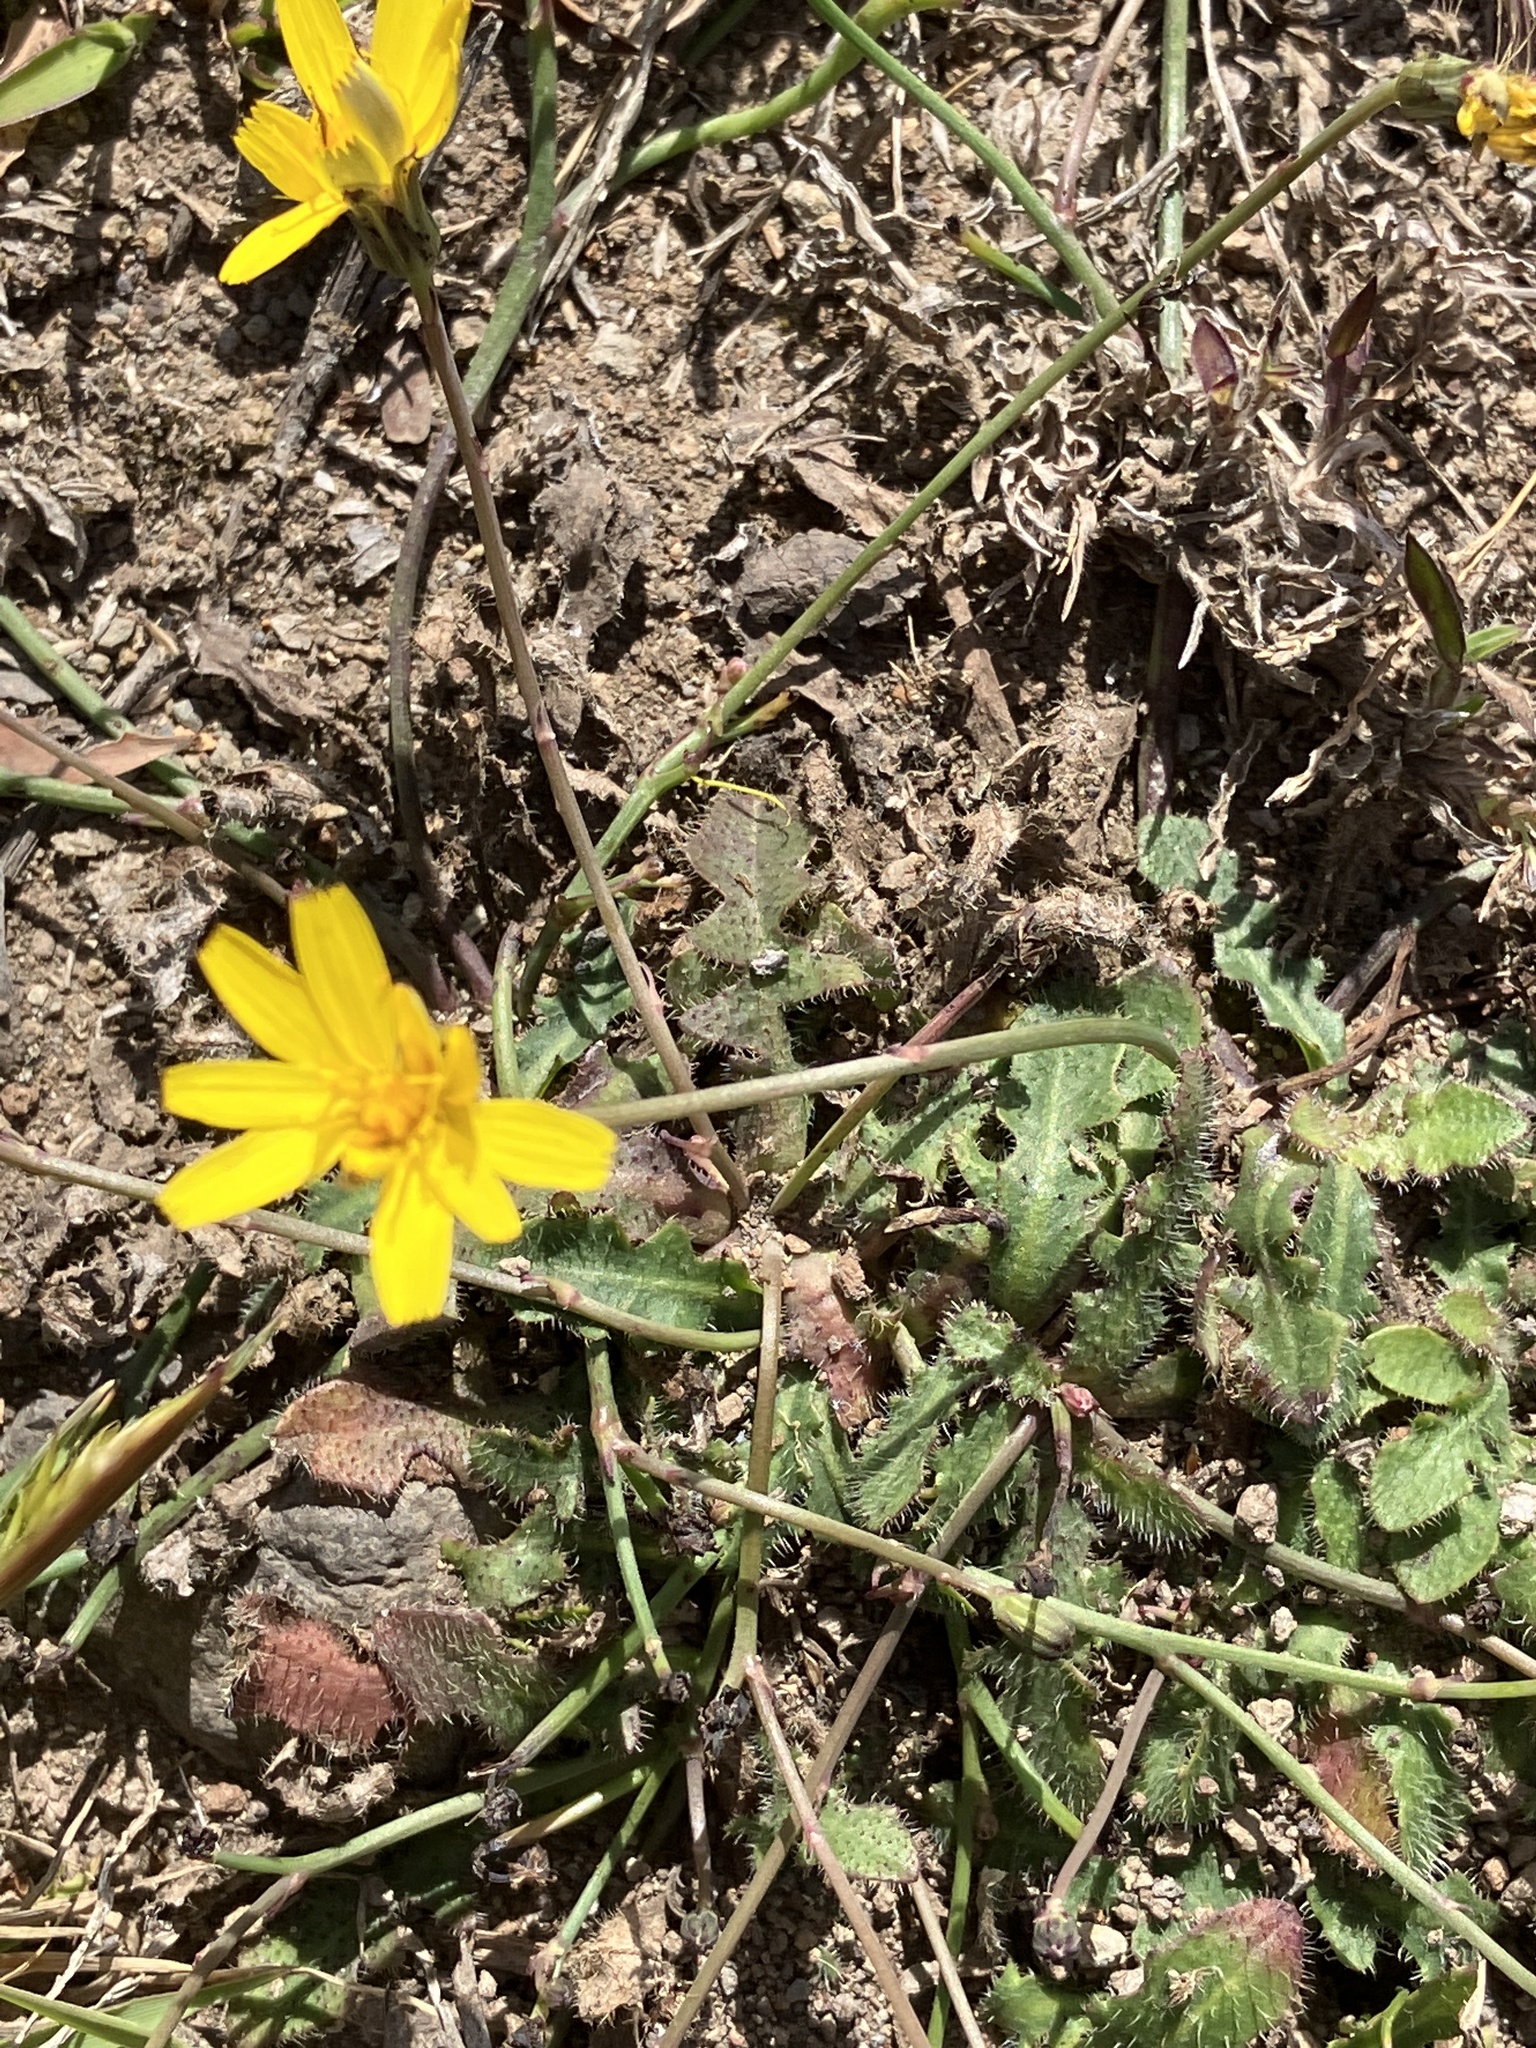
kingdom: Plantae
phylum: Tracheophyta
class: Magnoliopsida
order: Asterales
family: Asteraceae
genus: Hypochaeris
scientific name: Hypochaeris radicata
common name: Flatweed
